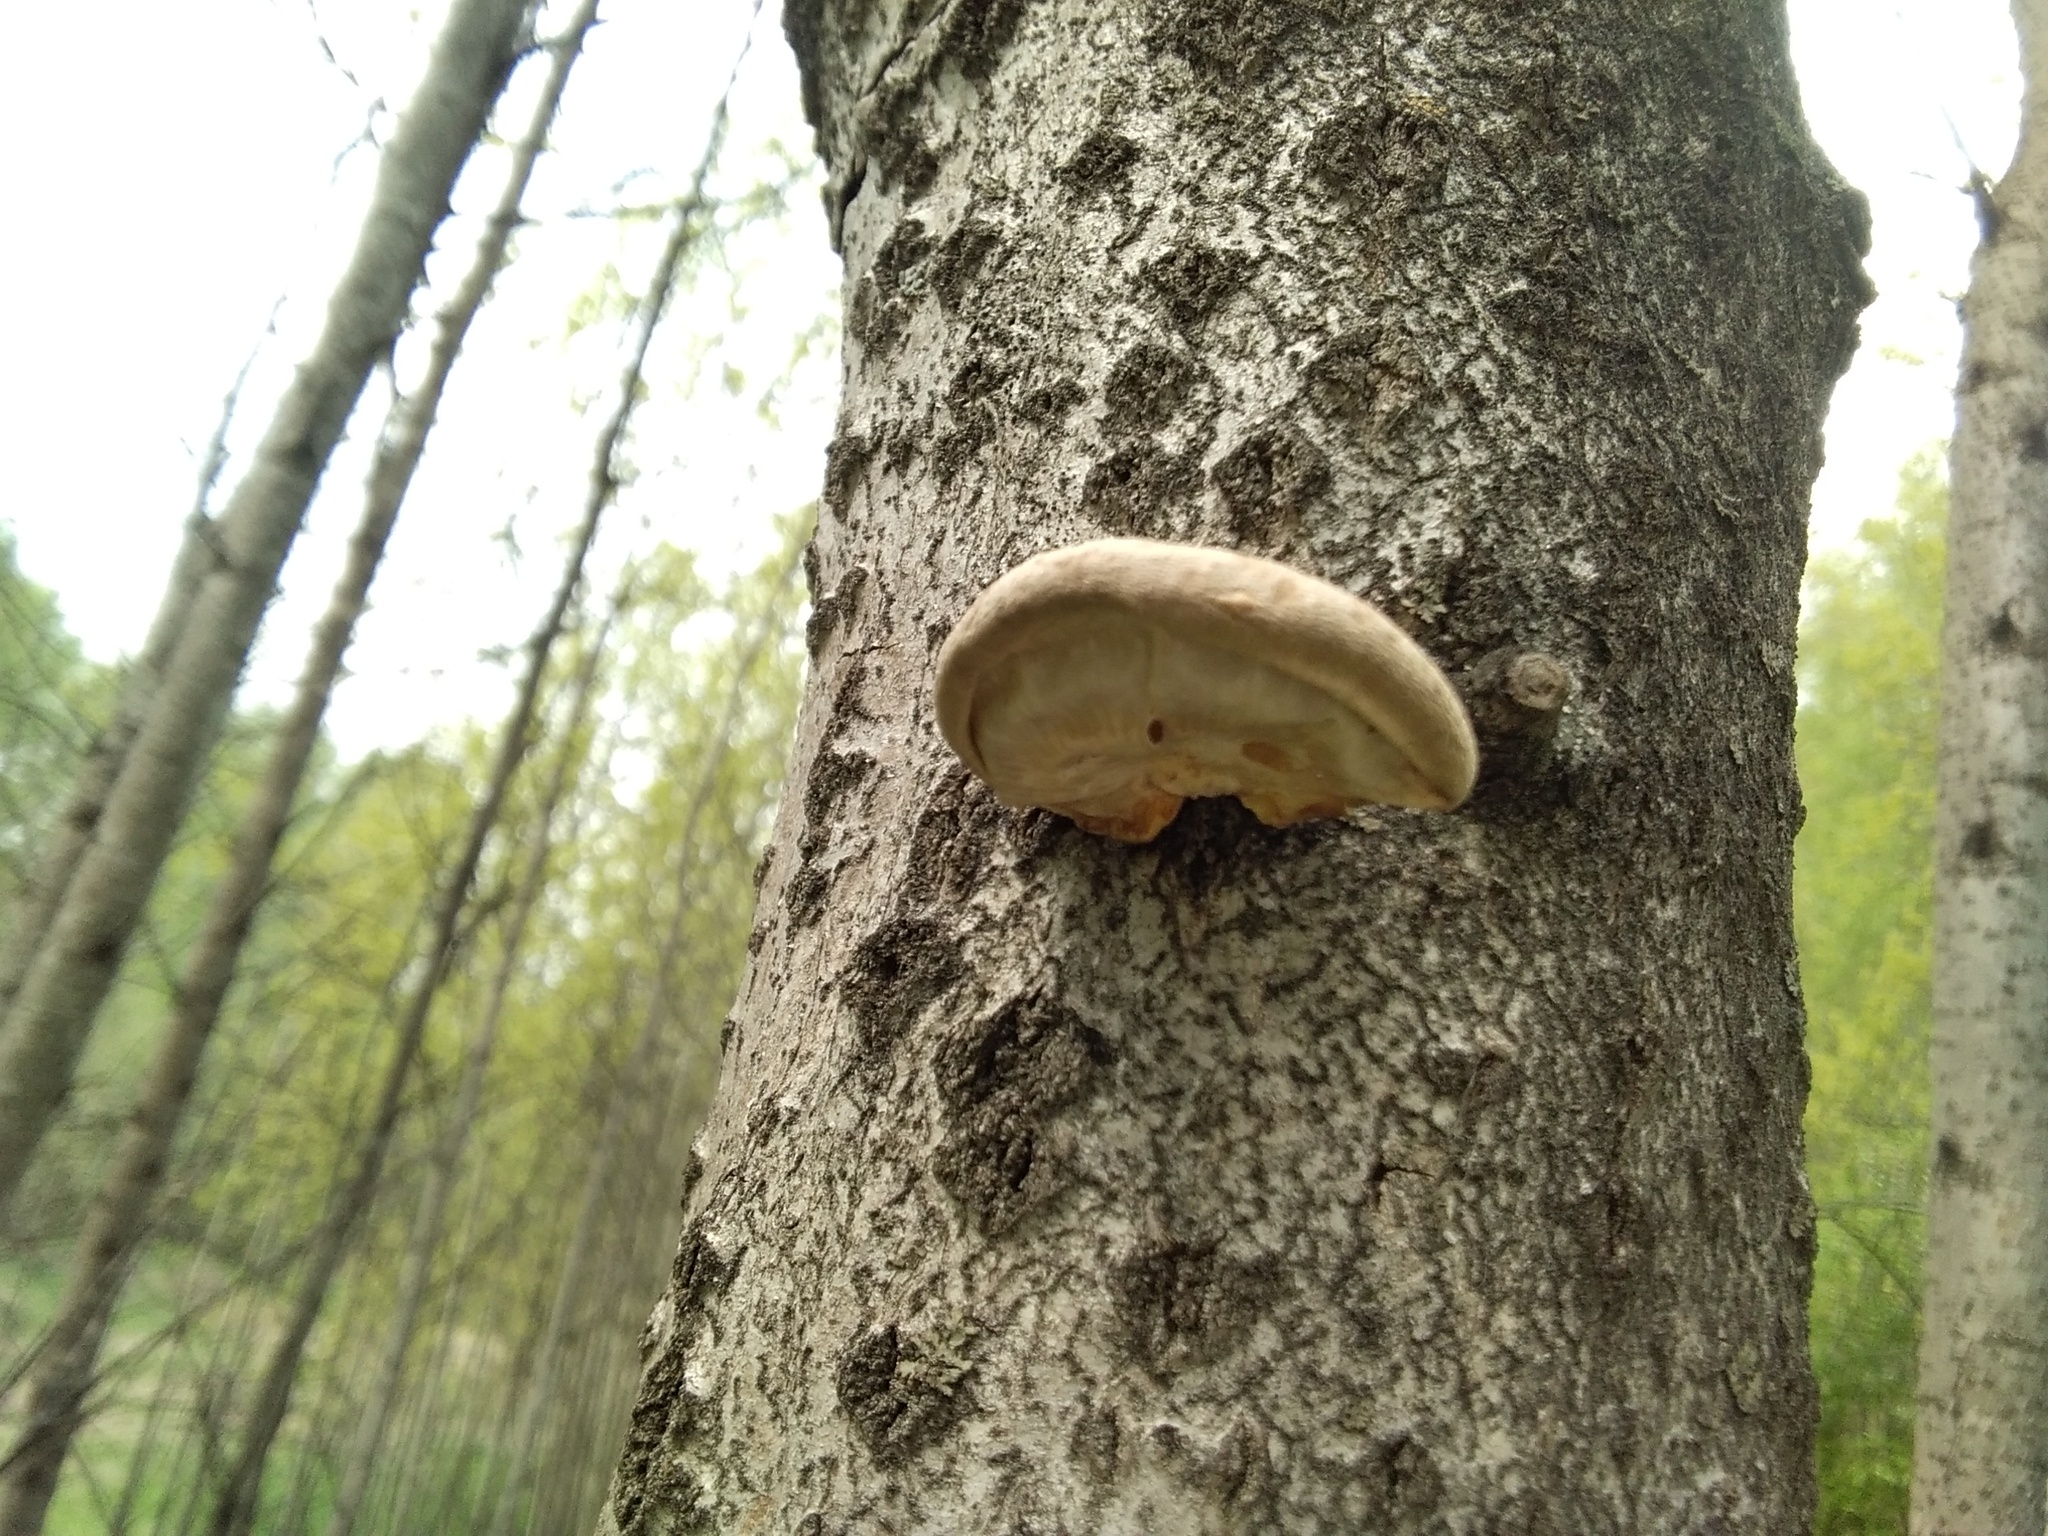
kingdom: Fungi
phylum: Basidiomycota
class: Agaricomycetes
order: Agaricales
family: Pleurotaceae
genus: Pleurotus
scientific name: Pleurotus calyptratus
